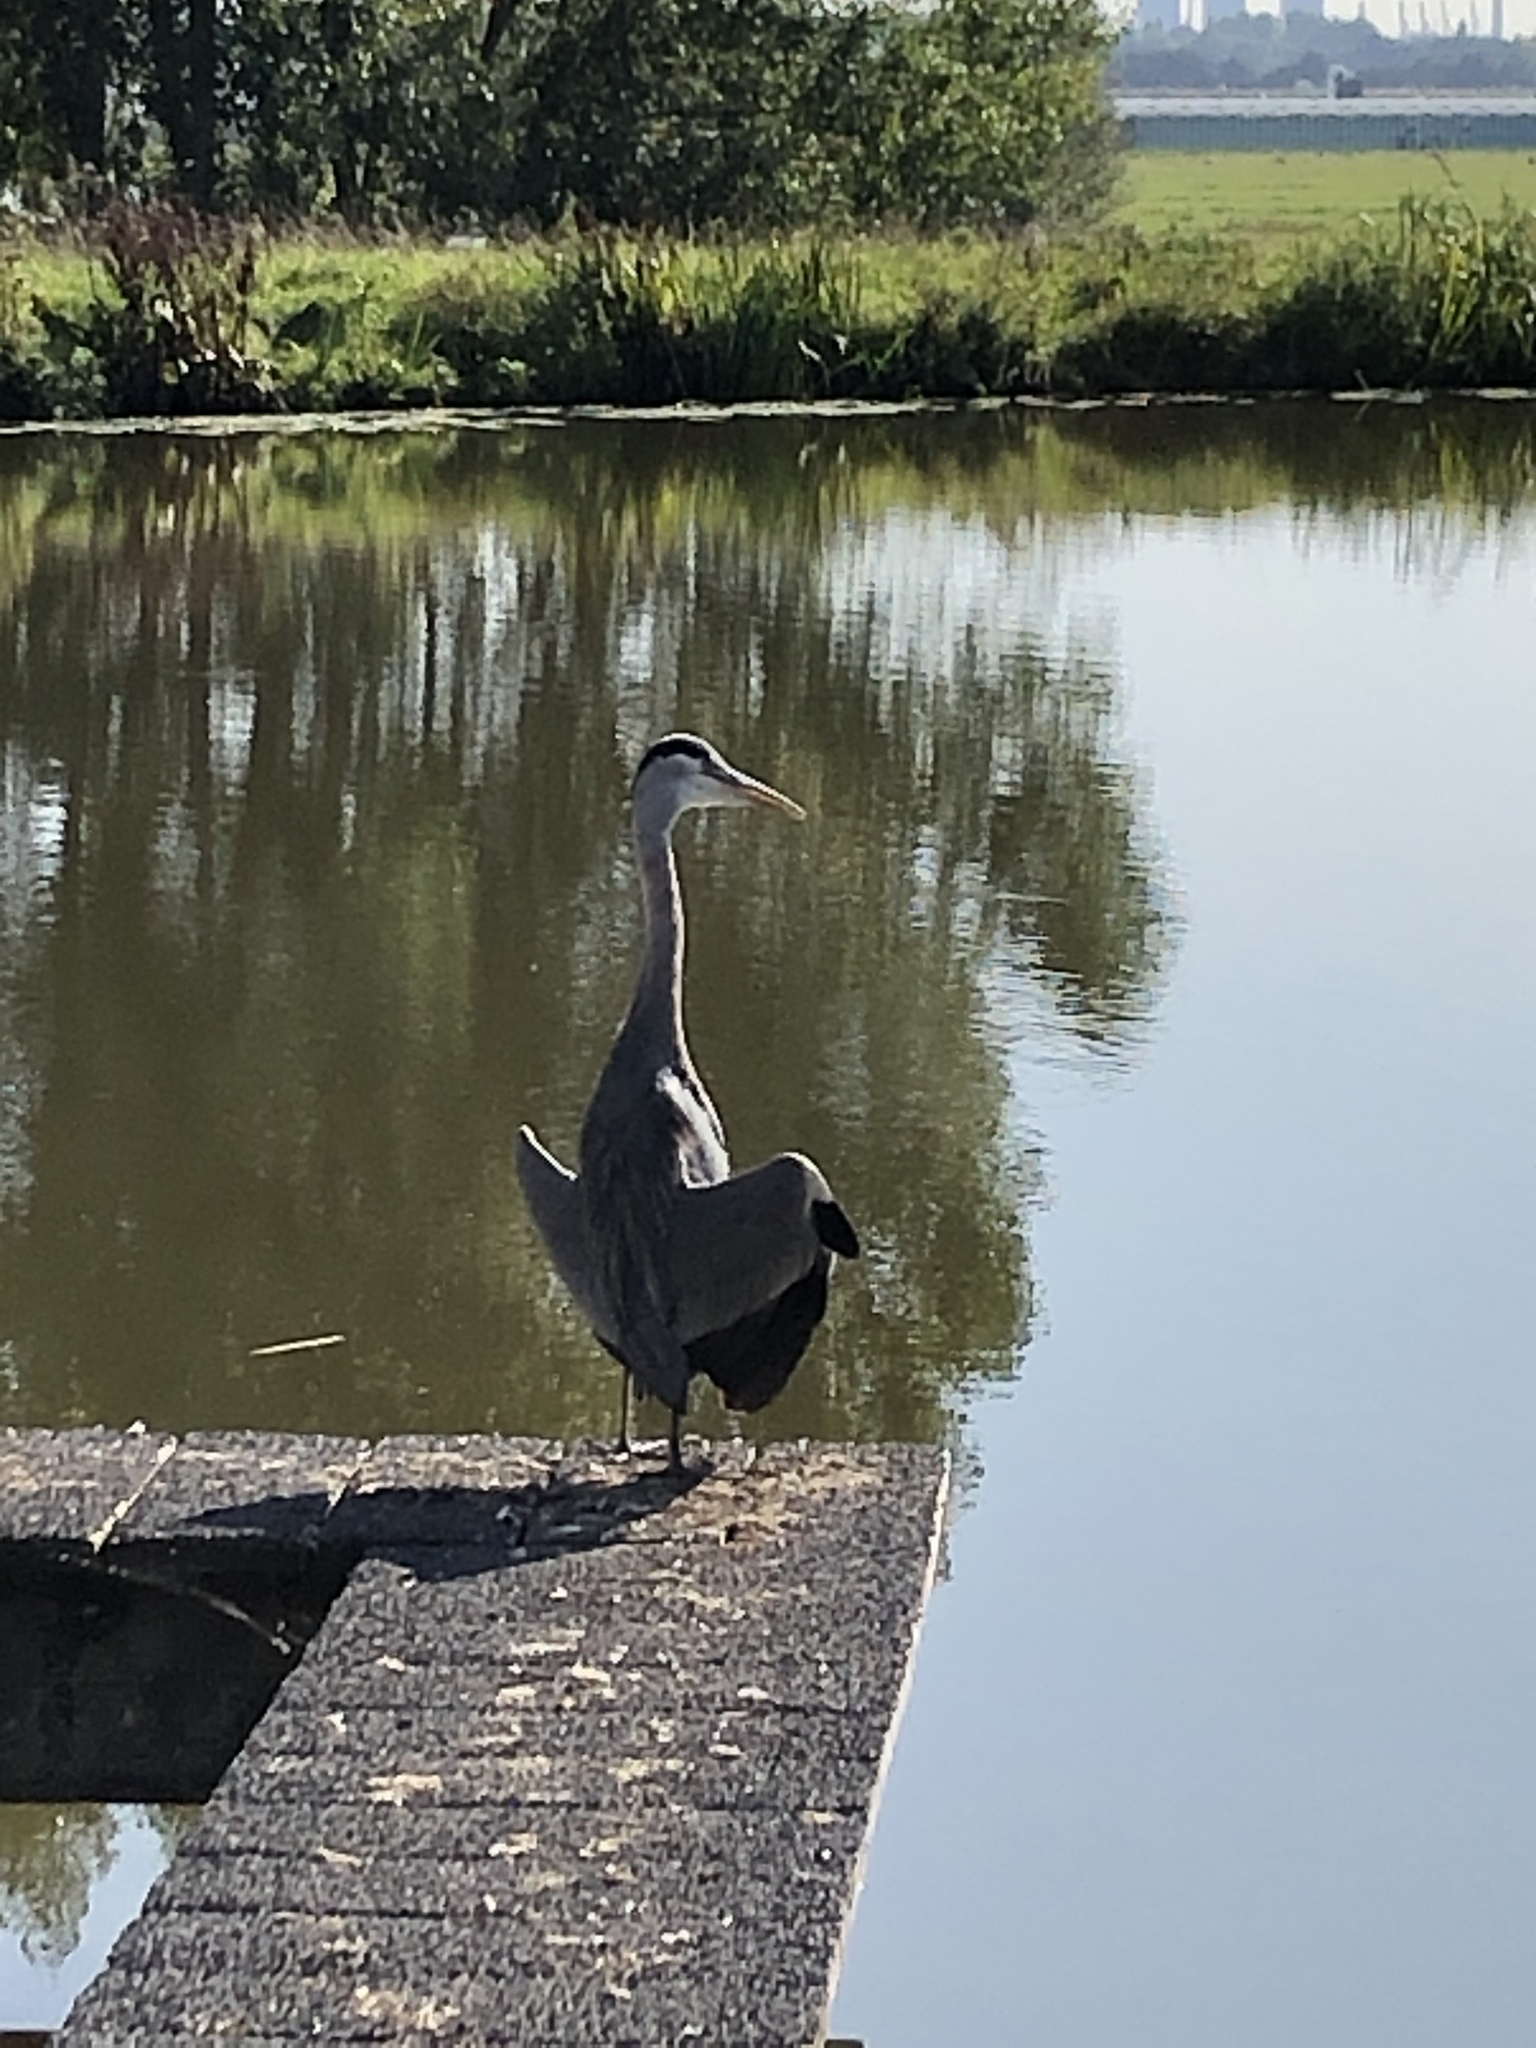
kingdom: Animalia
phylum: Chordata
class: Aves
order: Pelecaniformes
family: Ardeidae
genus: Ardea
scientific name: Ardea cinerea
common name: Grey heron
